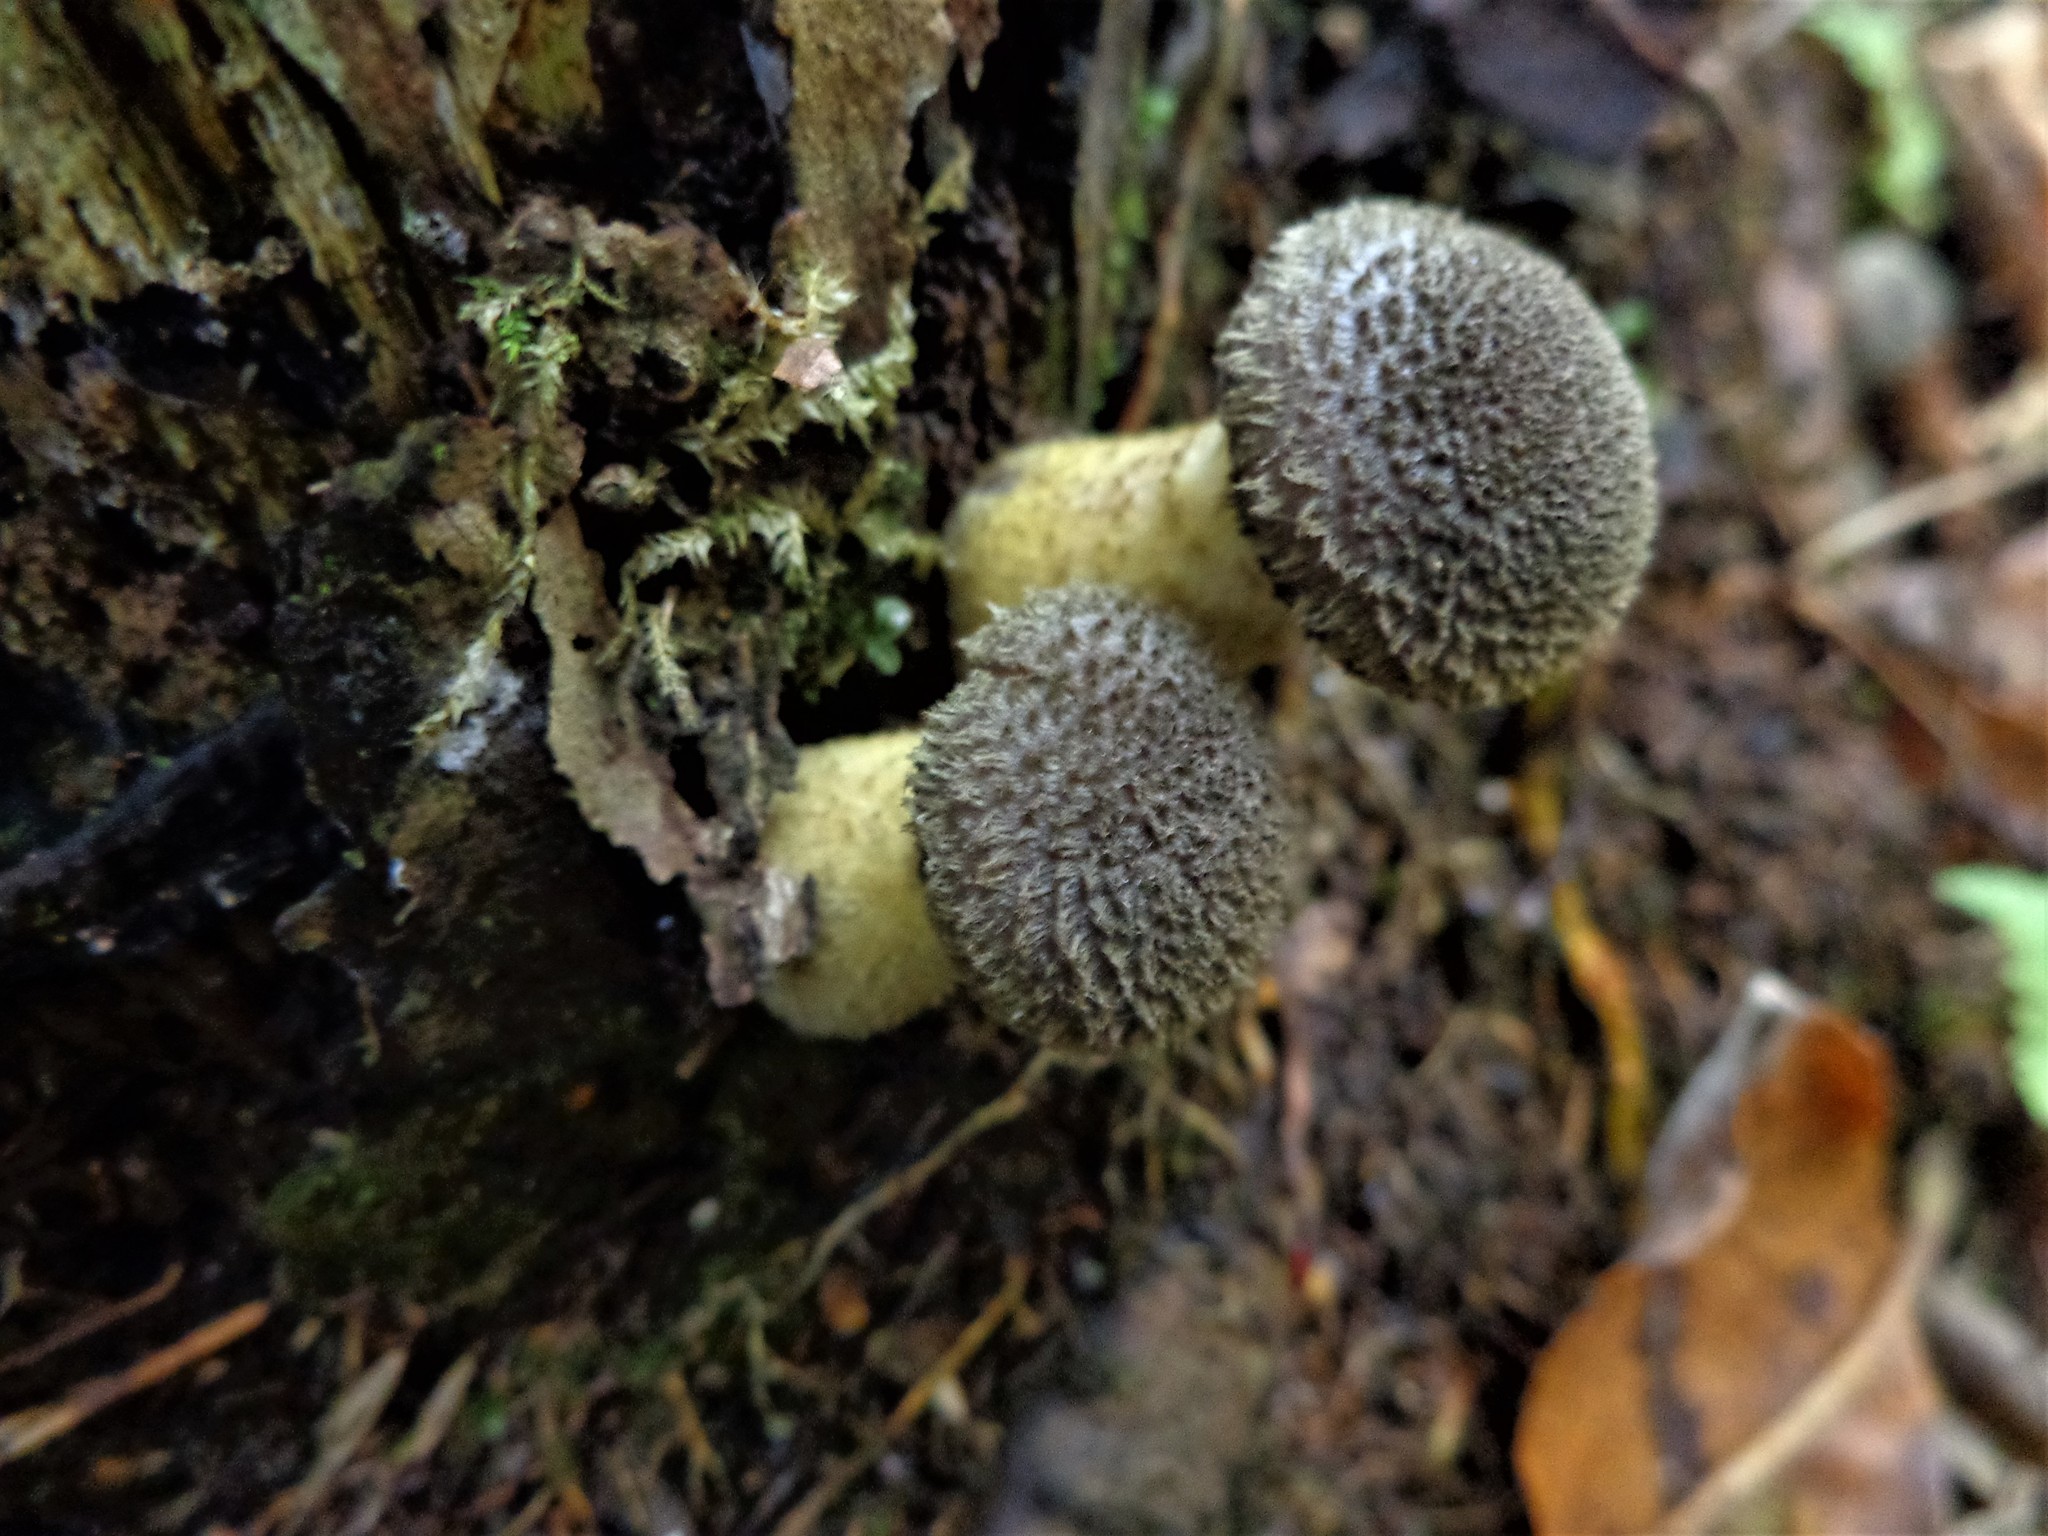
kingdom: Fungi
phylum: Basidiomycota
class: Agaricomycetes
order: Agaricales
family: Physalacriaceae
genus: Armillaria
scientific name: Armillaria gallica
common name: Bulbous honey fungus
